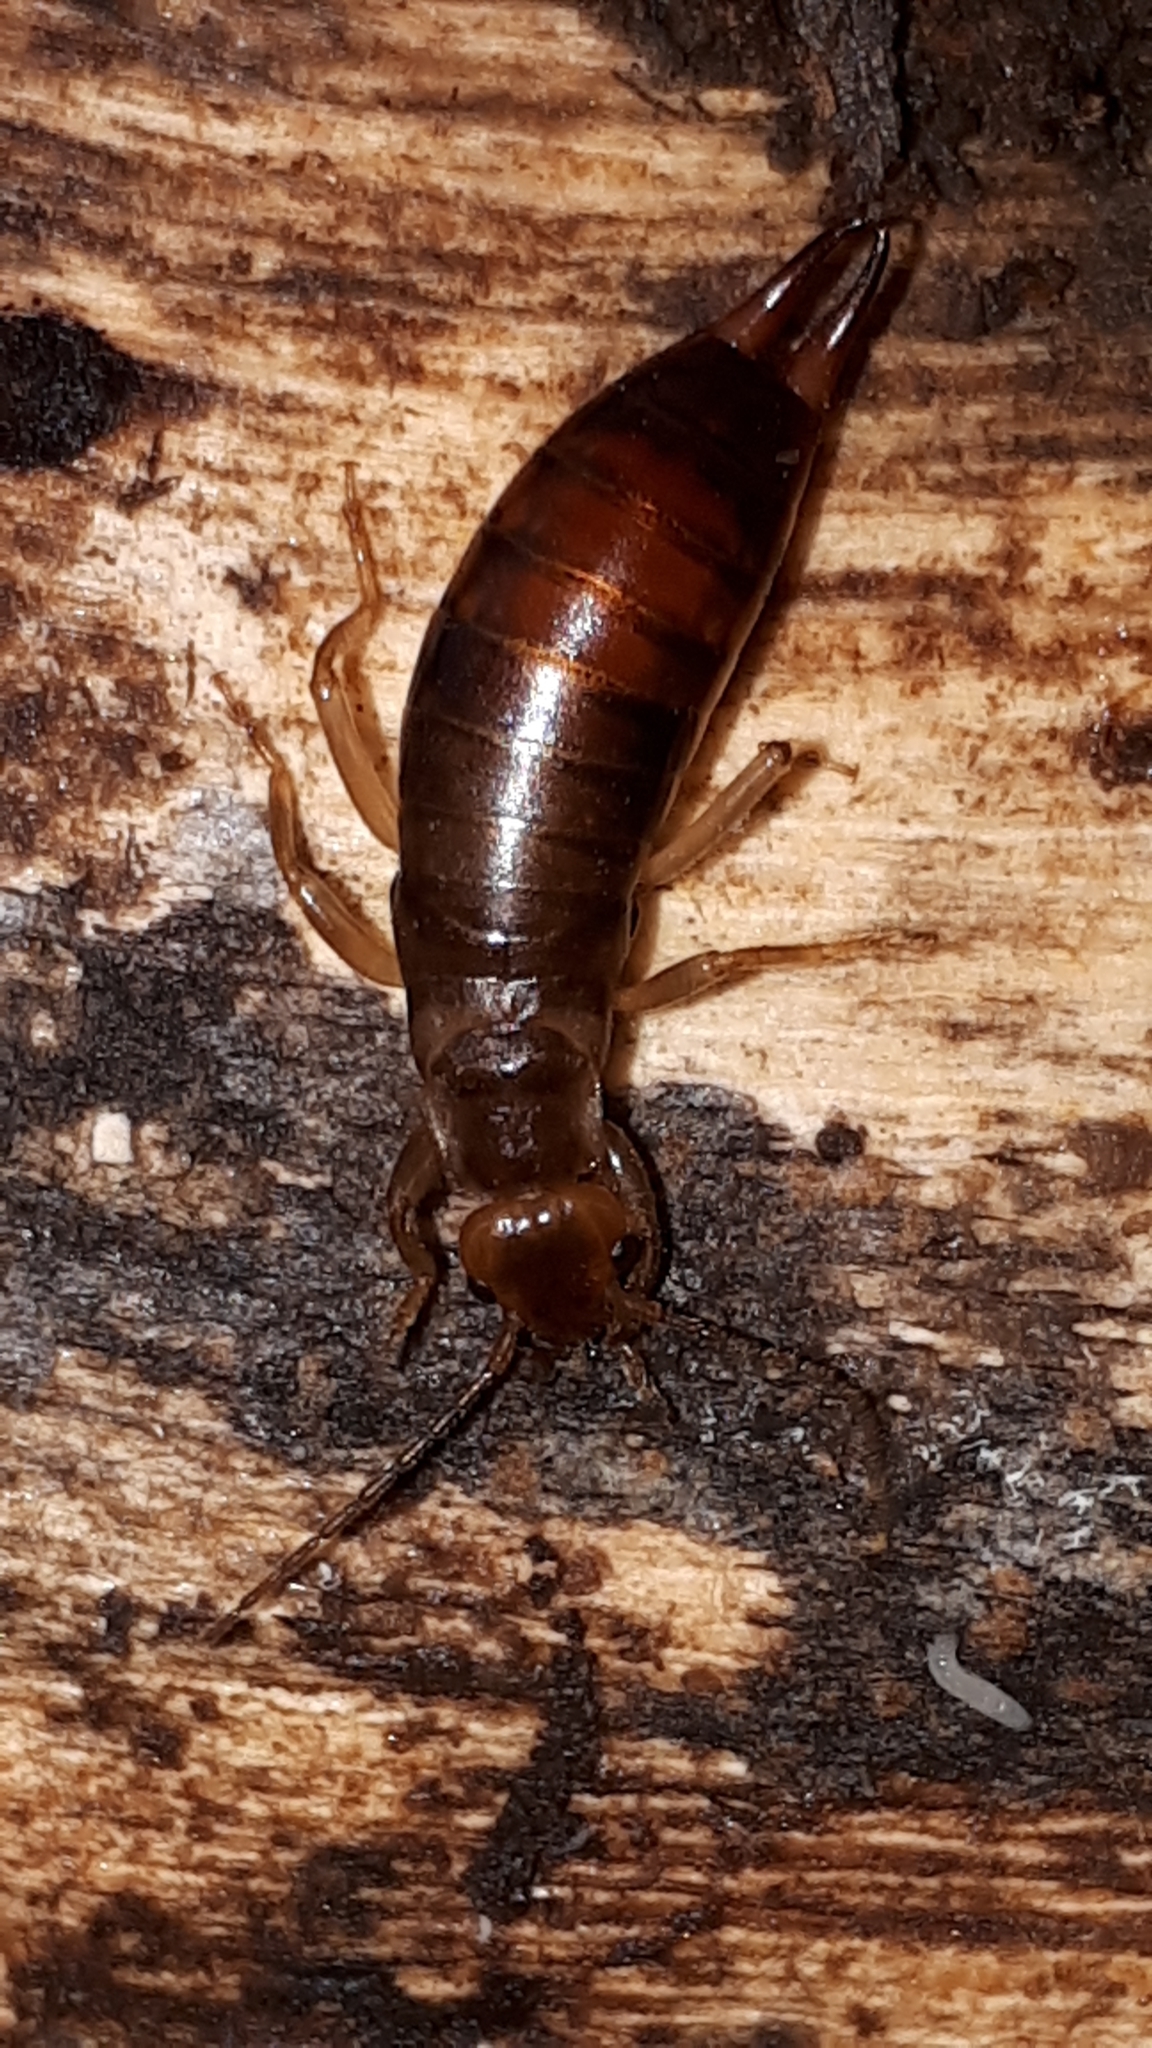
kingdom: Animalia
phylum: Arthropoda
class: Insecta
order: Dermaptera
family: Forficulidae
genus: Chelidurella
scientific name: Chelidurella acanthopygia
